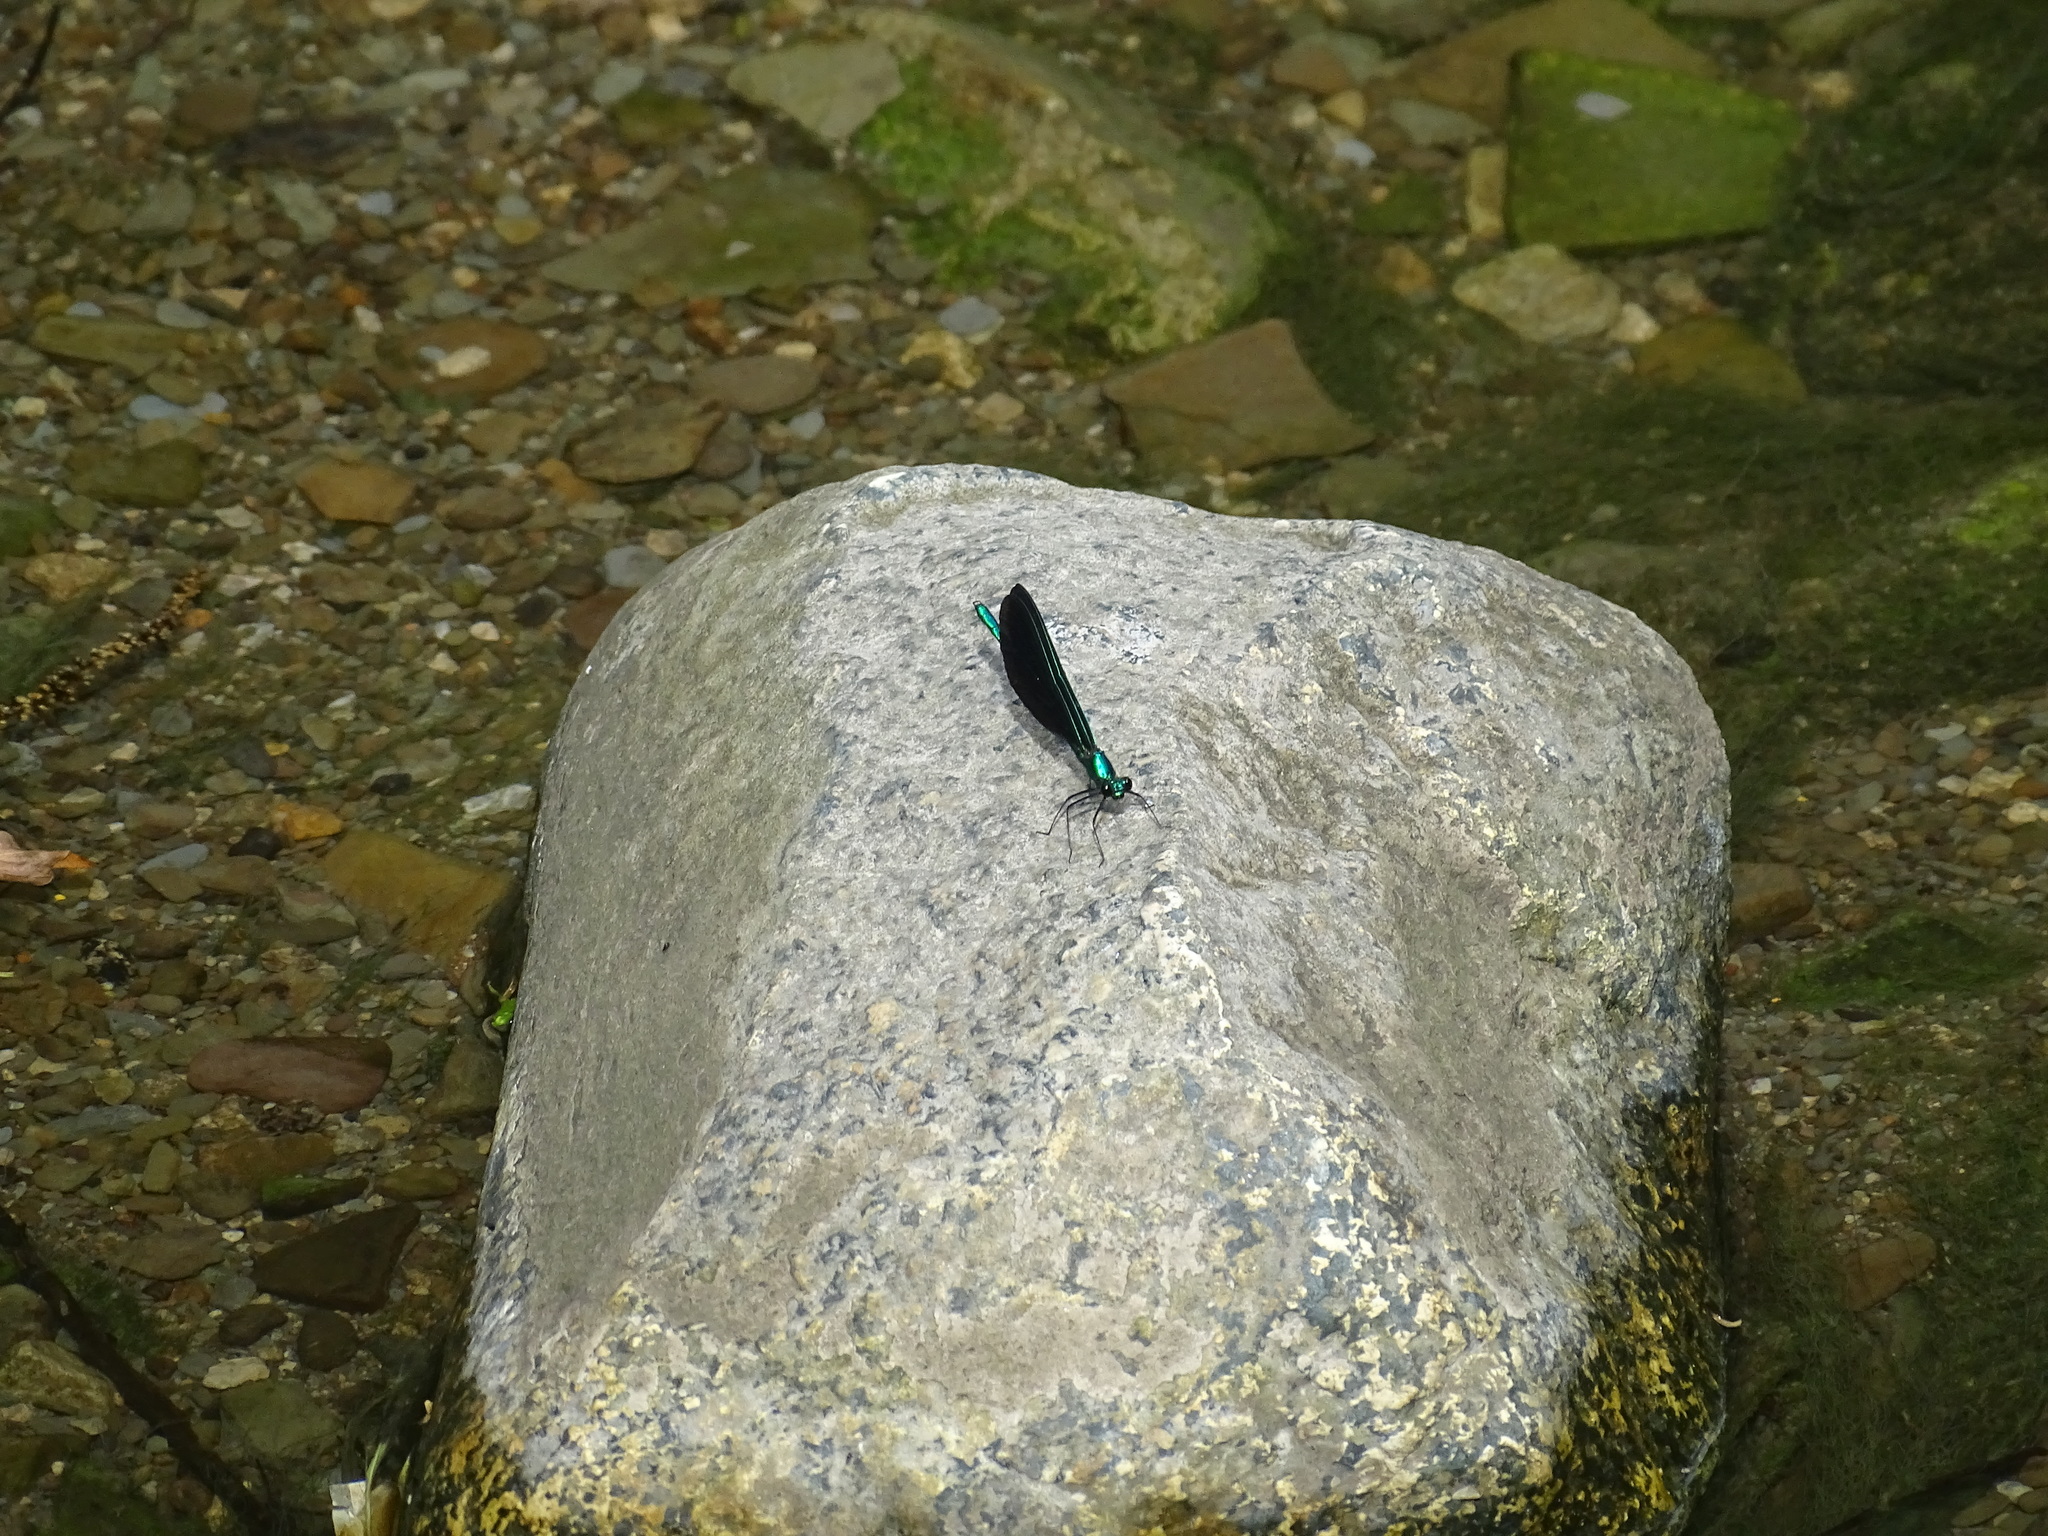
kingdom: Animalia
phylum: Arthropoda
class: Insecta
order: Odonata
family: Calopterygidae
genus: Calopteryx
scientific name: Calopteryx maculata
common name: Ebony jewelwing
